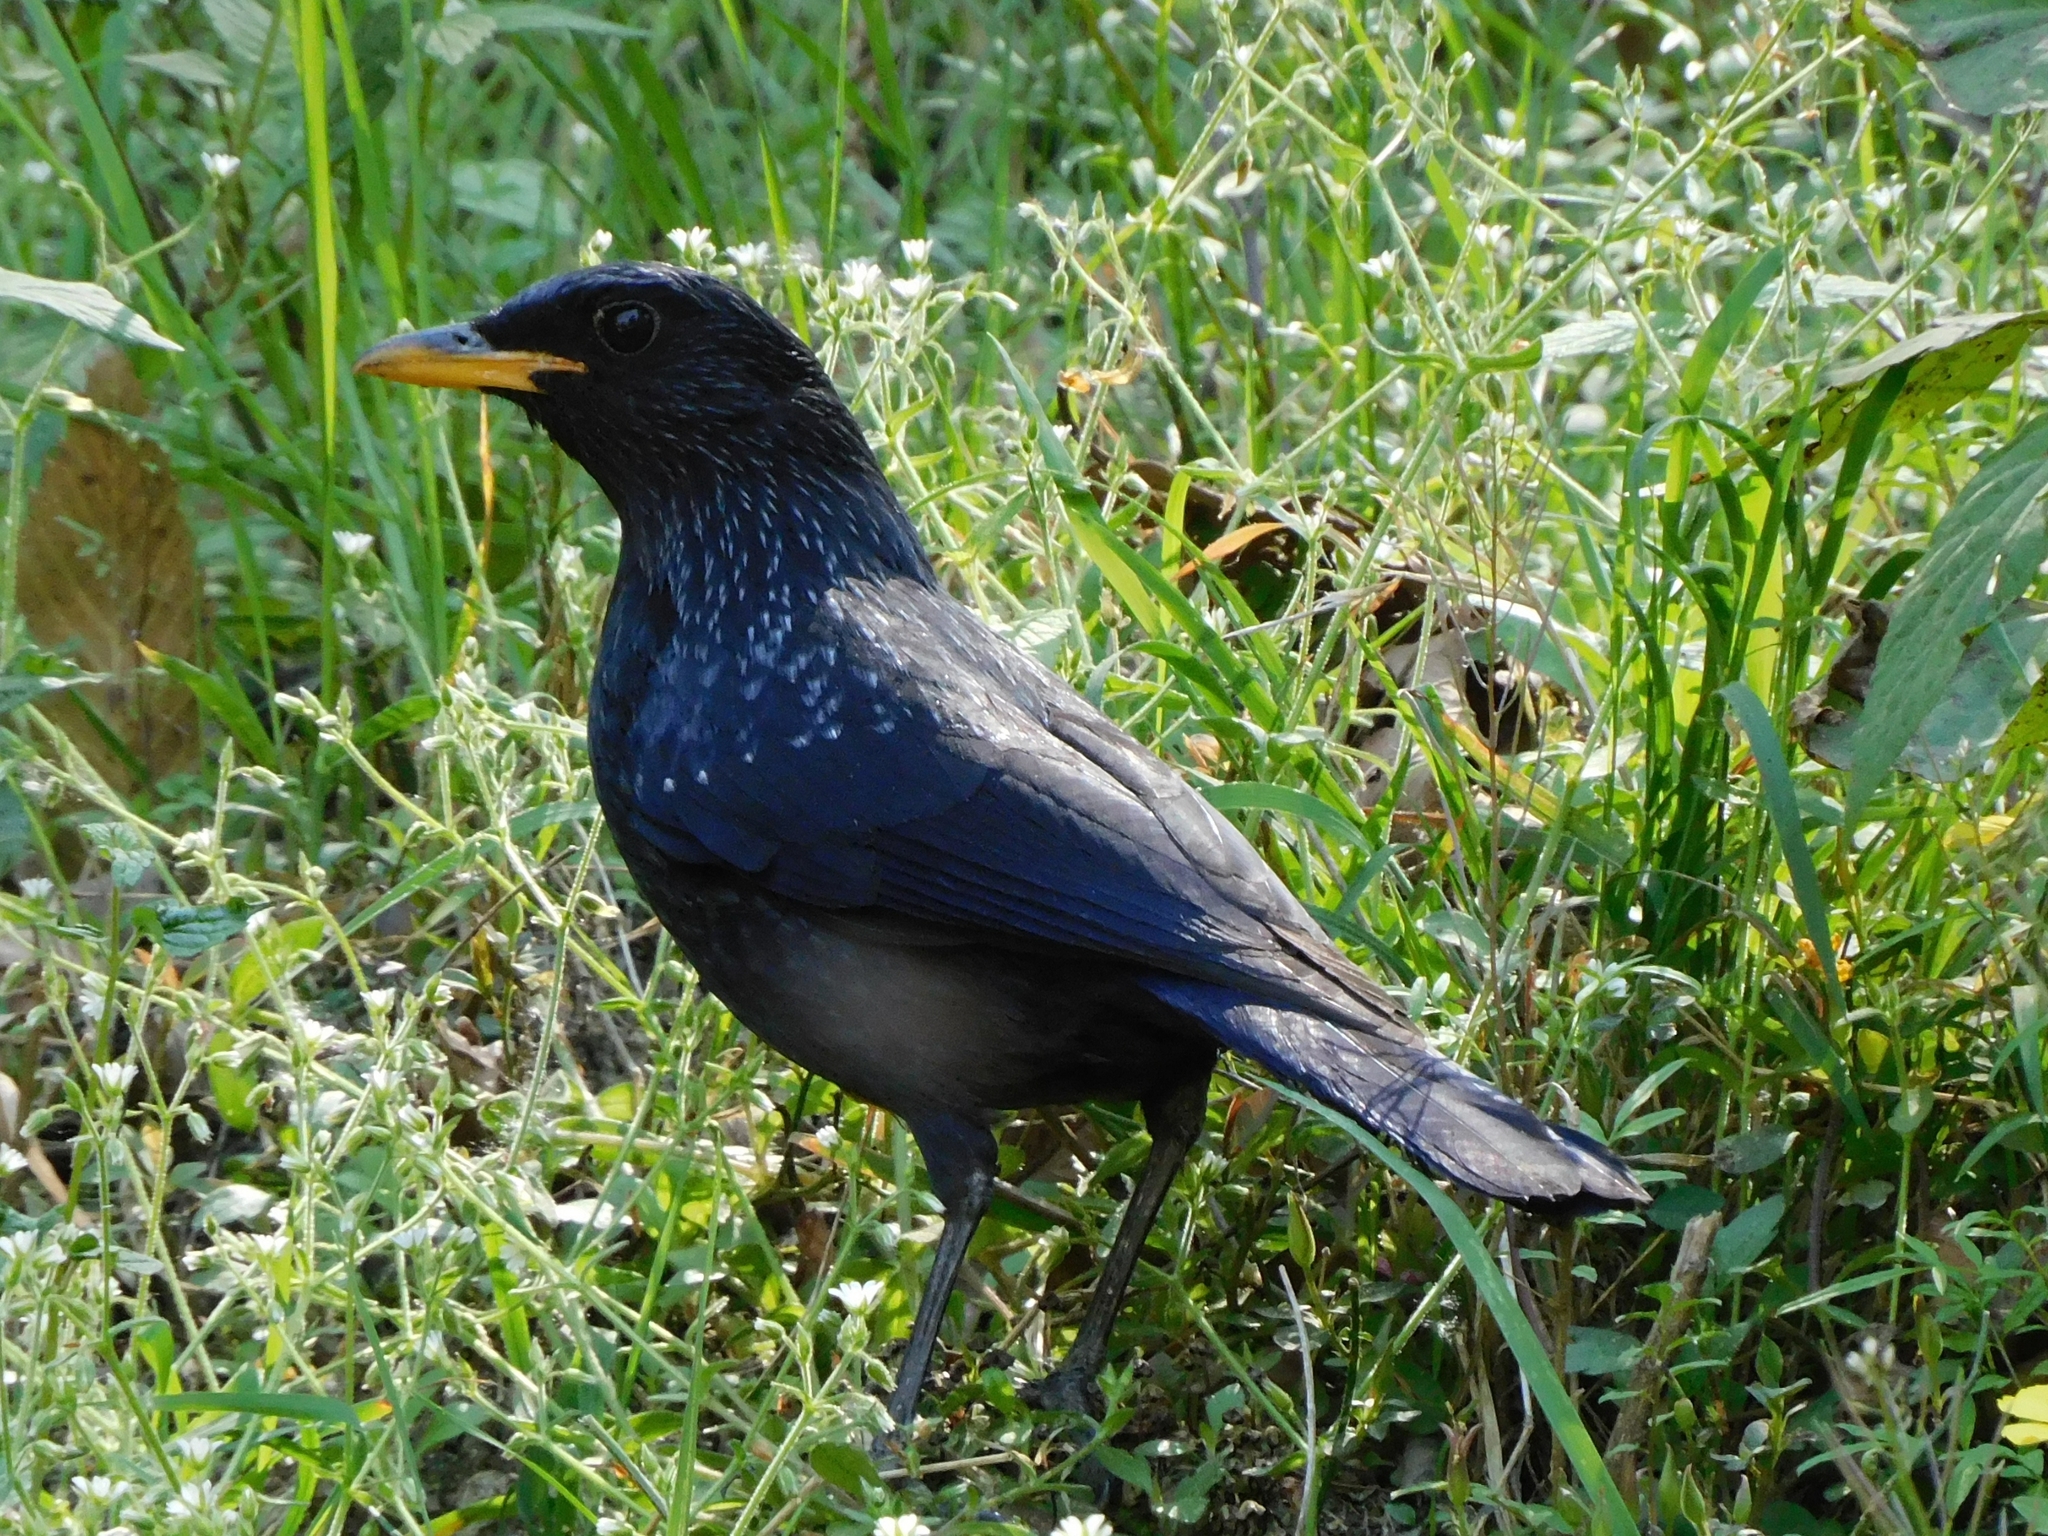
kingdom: Animalia
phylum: Chordata
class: Aves
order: Passeriformes
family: Muscicapidae
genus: Myophonus
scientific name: Myophonus caeruleus
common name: Blue whistling-thrush
